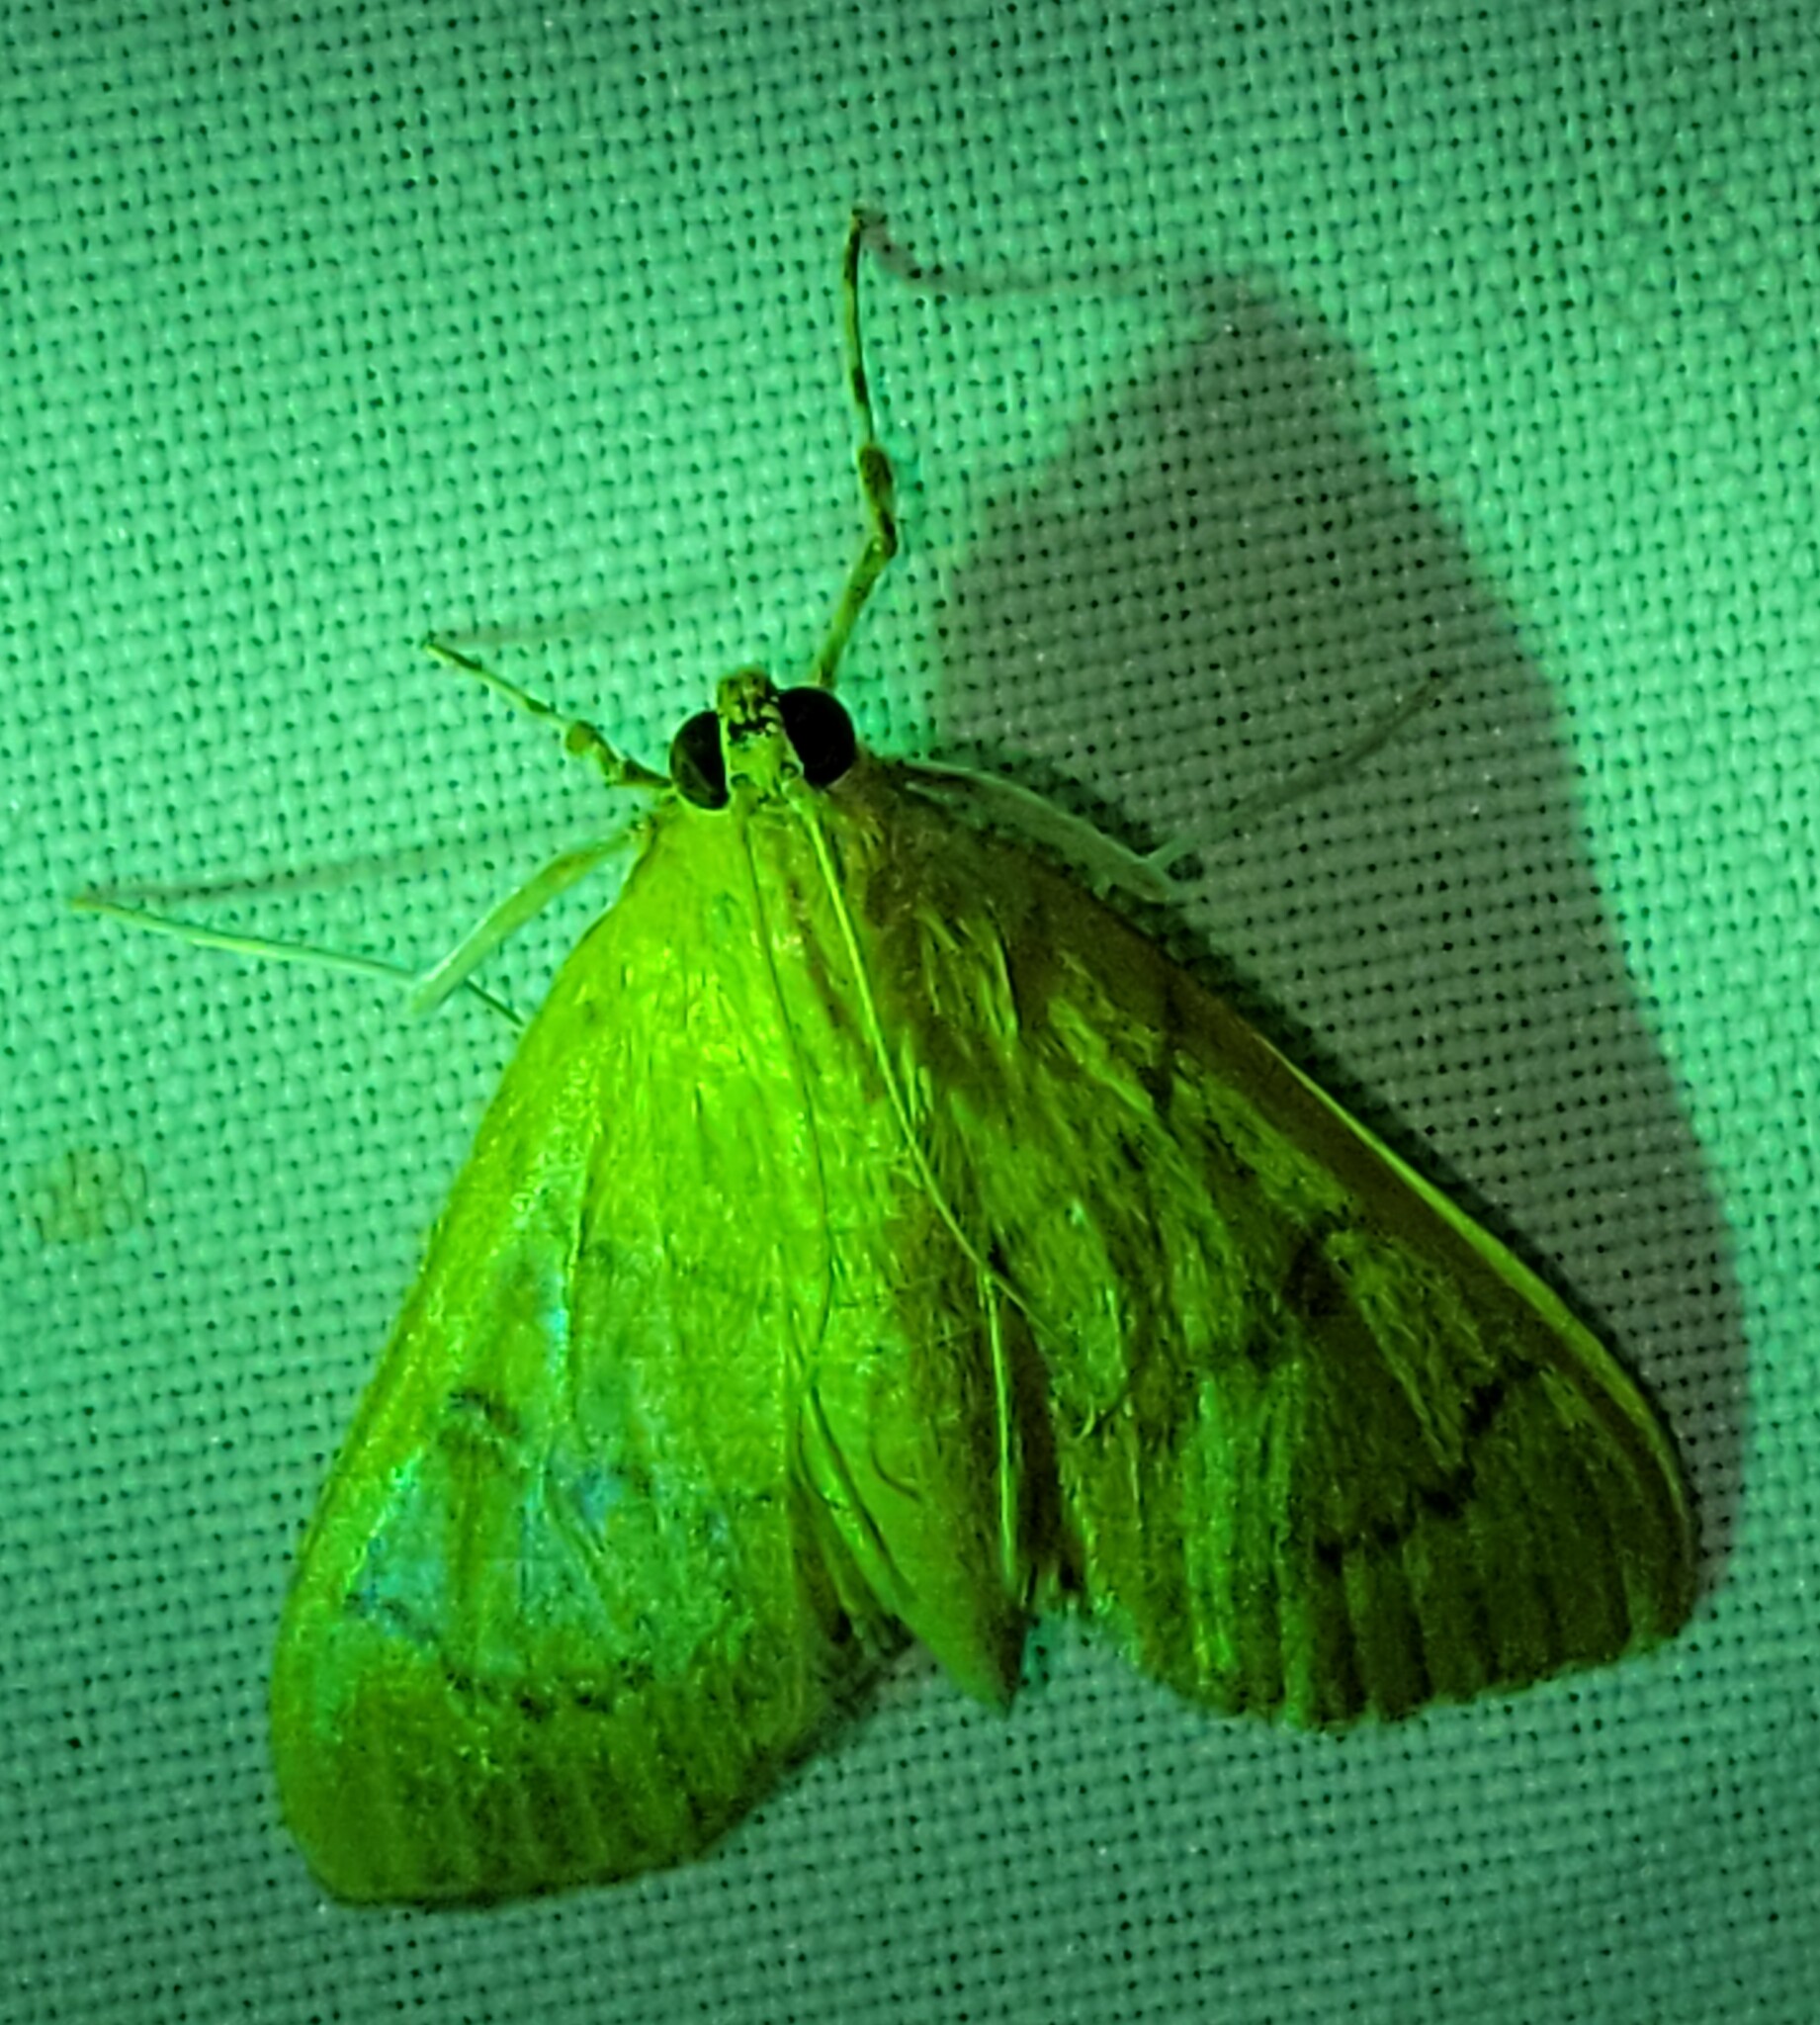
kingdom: Animalia
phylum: Arthropoda
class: Insecta
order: Lepidoptera
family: Crambidae
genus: Condylorrhiza
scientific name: Condylorrhiza vestigialis
